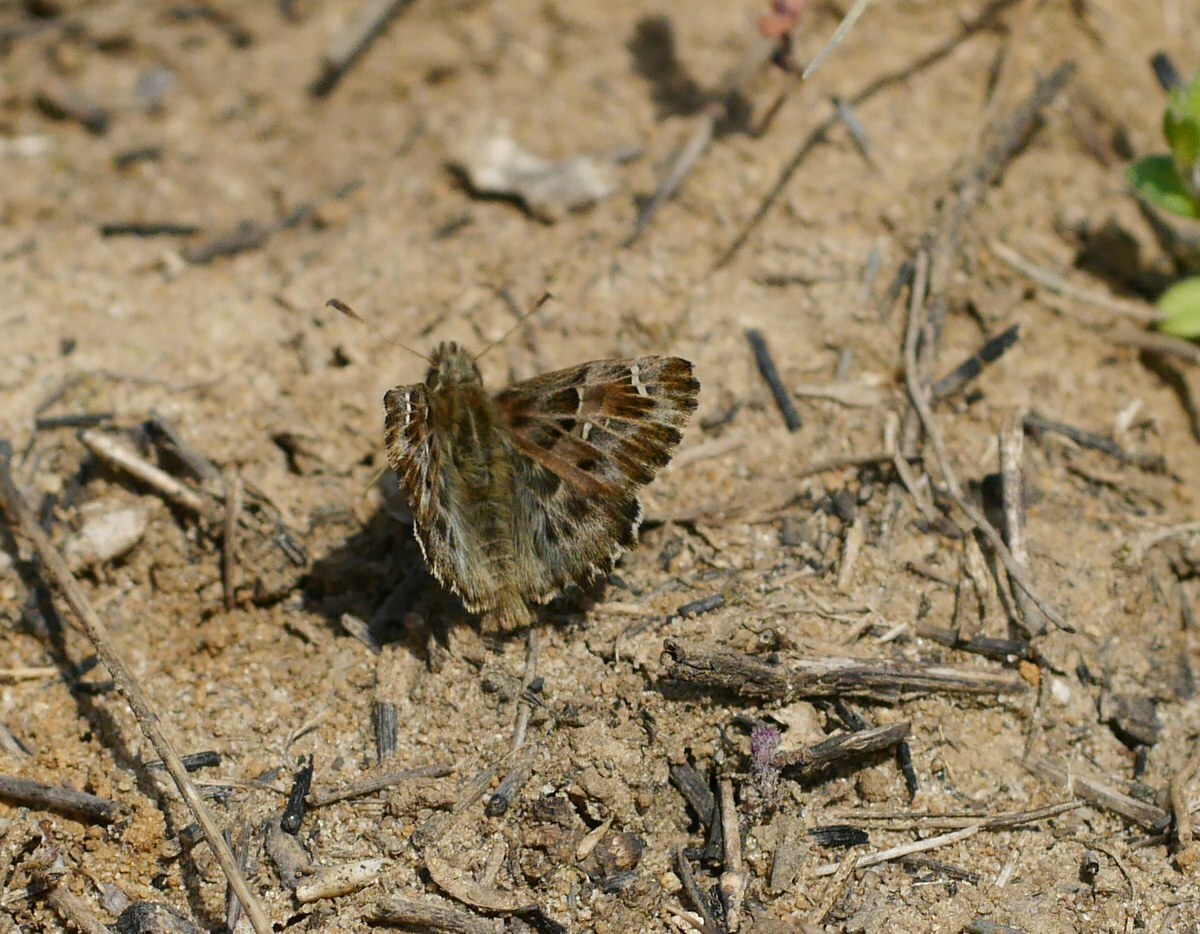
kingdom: Animalia
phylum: Arthropoda
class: Insecta
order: Lepidoptera
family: Hesperiidae
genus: Carcharodus
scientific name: Carcharodus alceae
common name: Mallow skipper
